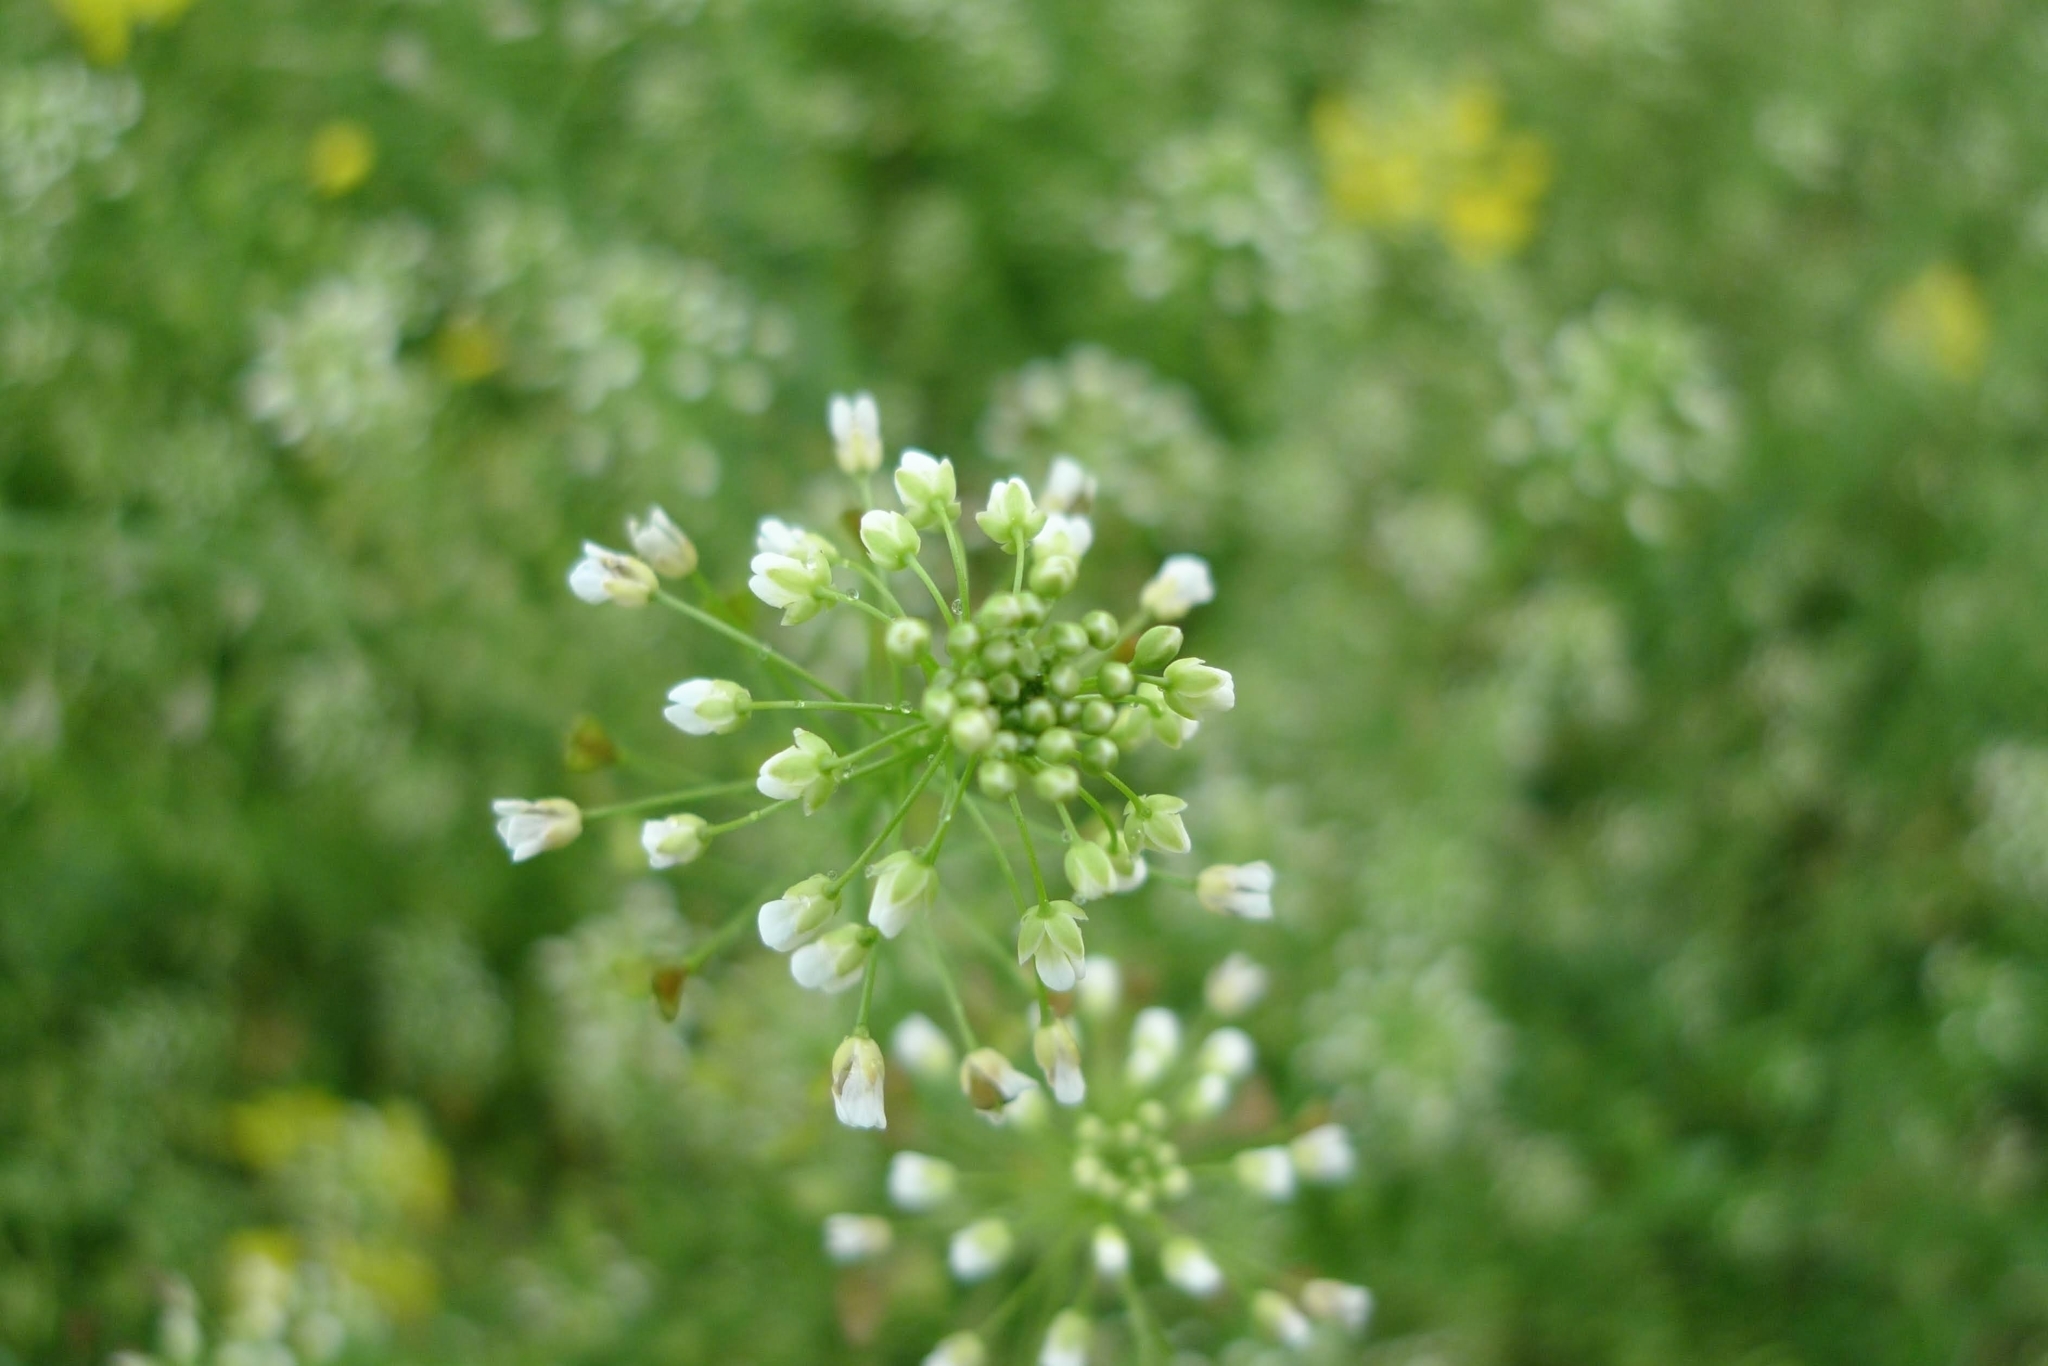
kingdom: Plantae
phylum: Tracheophyta
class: Magnoliopsida
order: Brassicales
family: Brassicaceae
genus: Capsella
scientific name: Capsella bursa-pastoris
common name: Shepherd's purse
